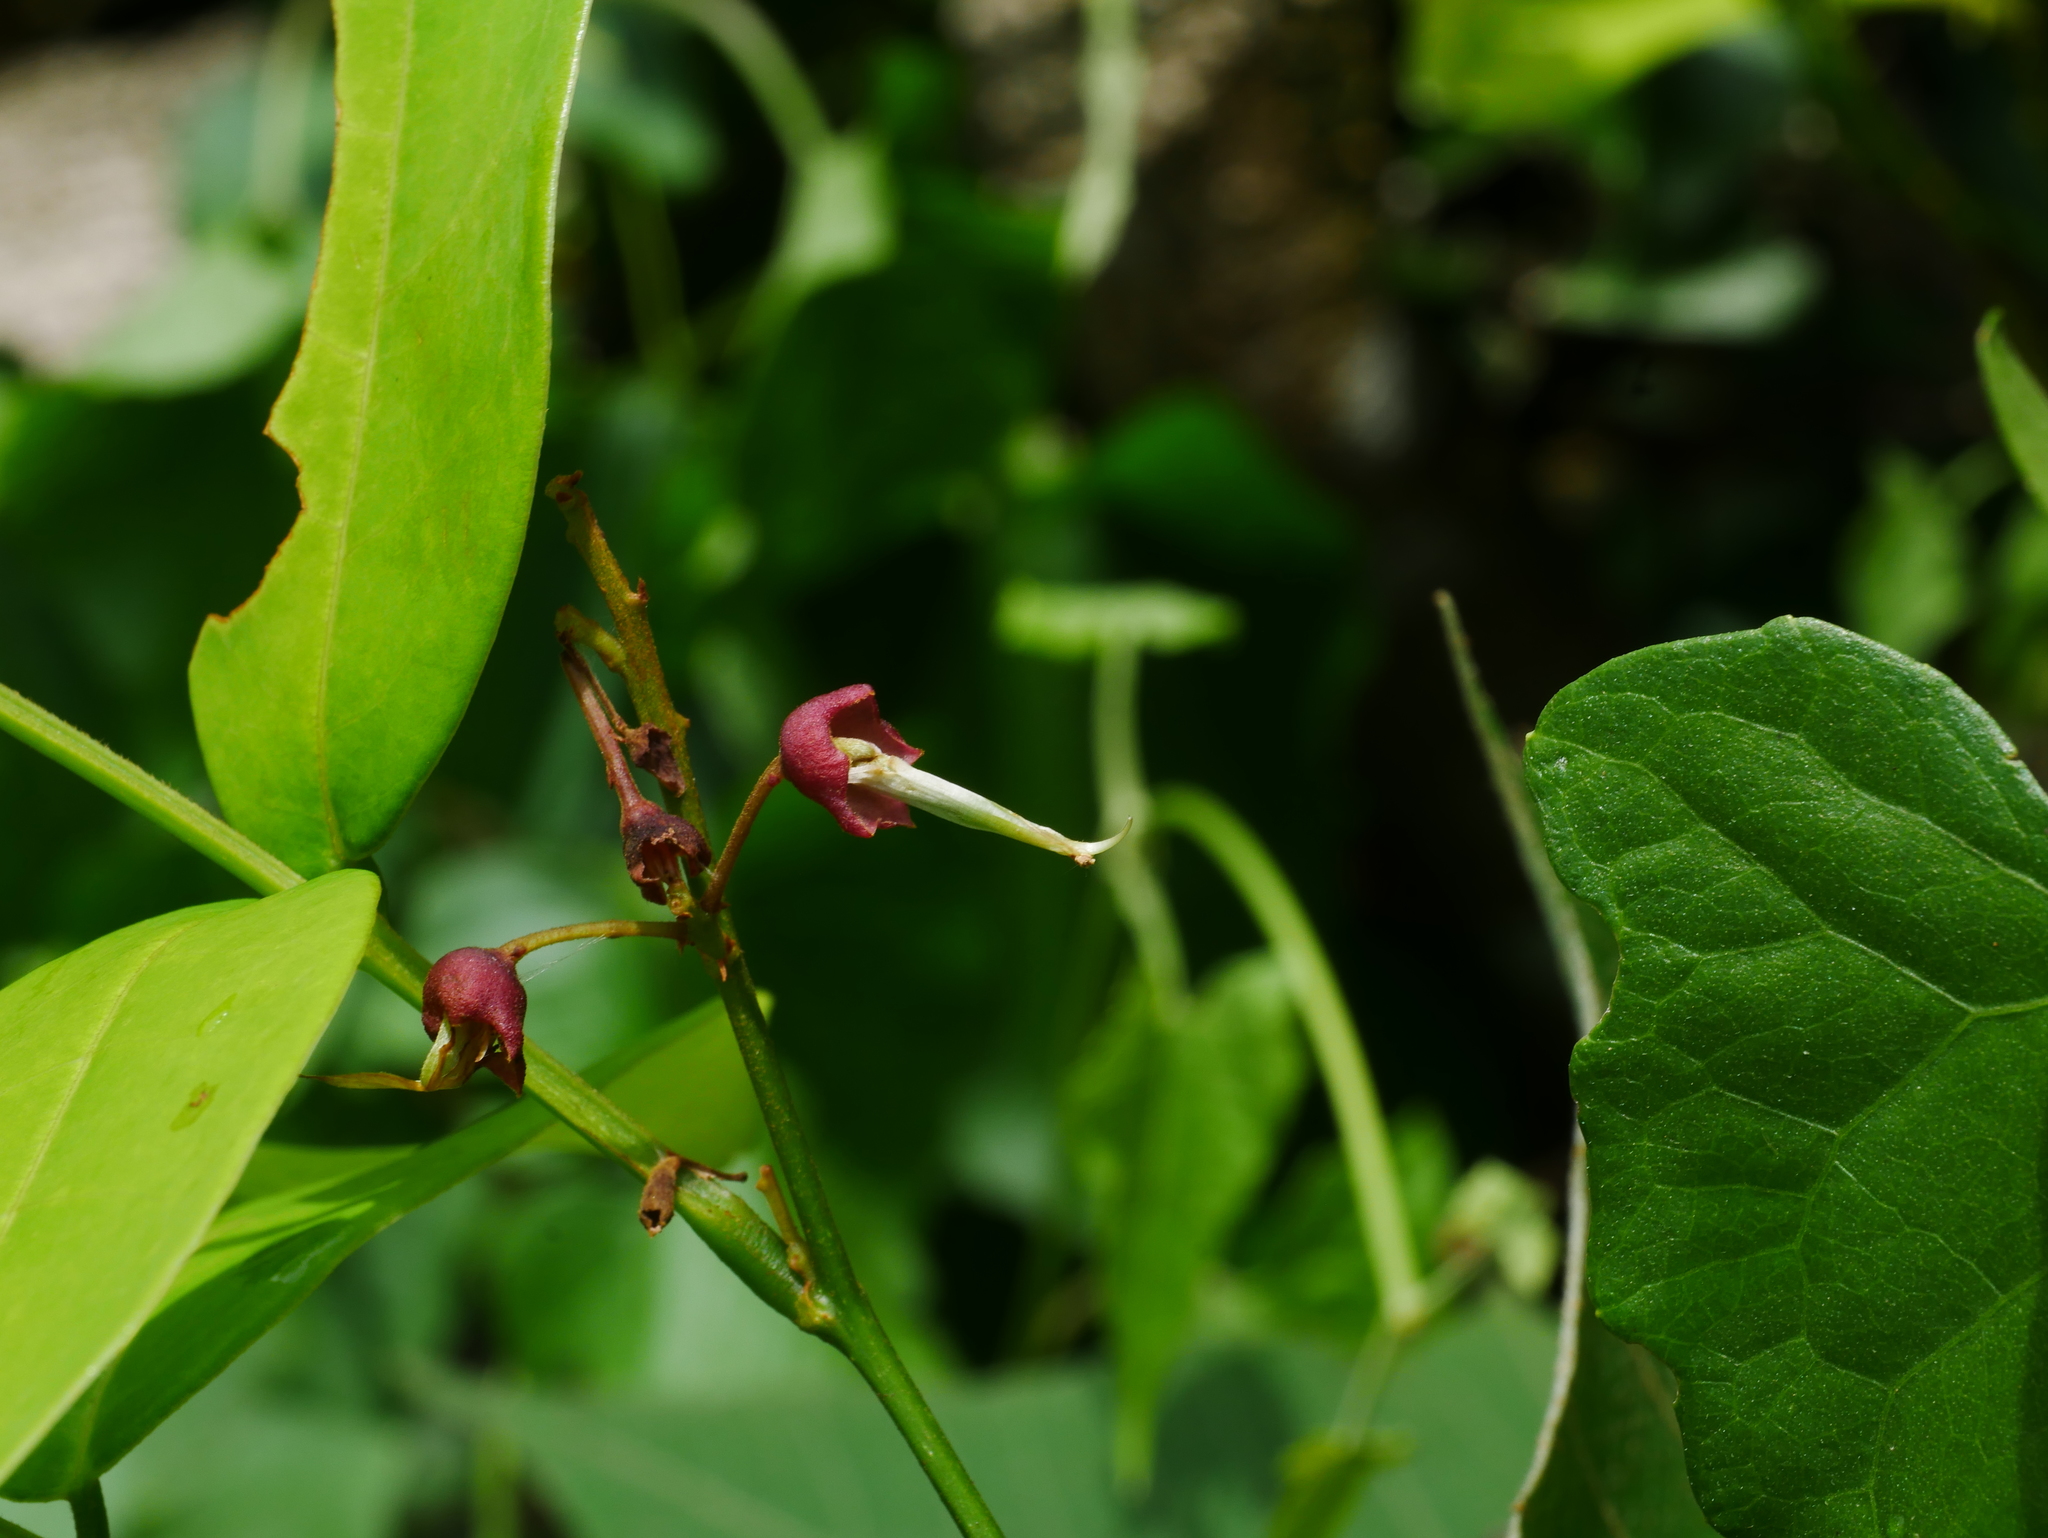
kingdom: Plantae
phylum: Tracheophyta
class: Magnoliopsida
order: Fabales
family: Fabaceae
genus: Derris
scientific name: Derris laxiflora
